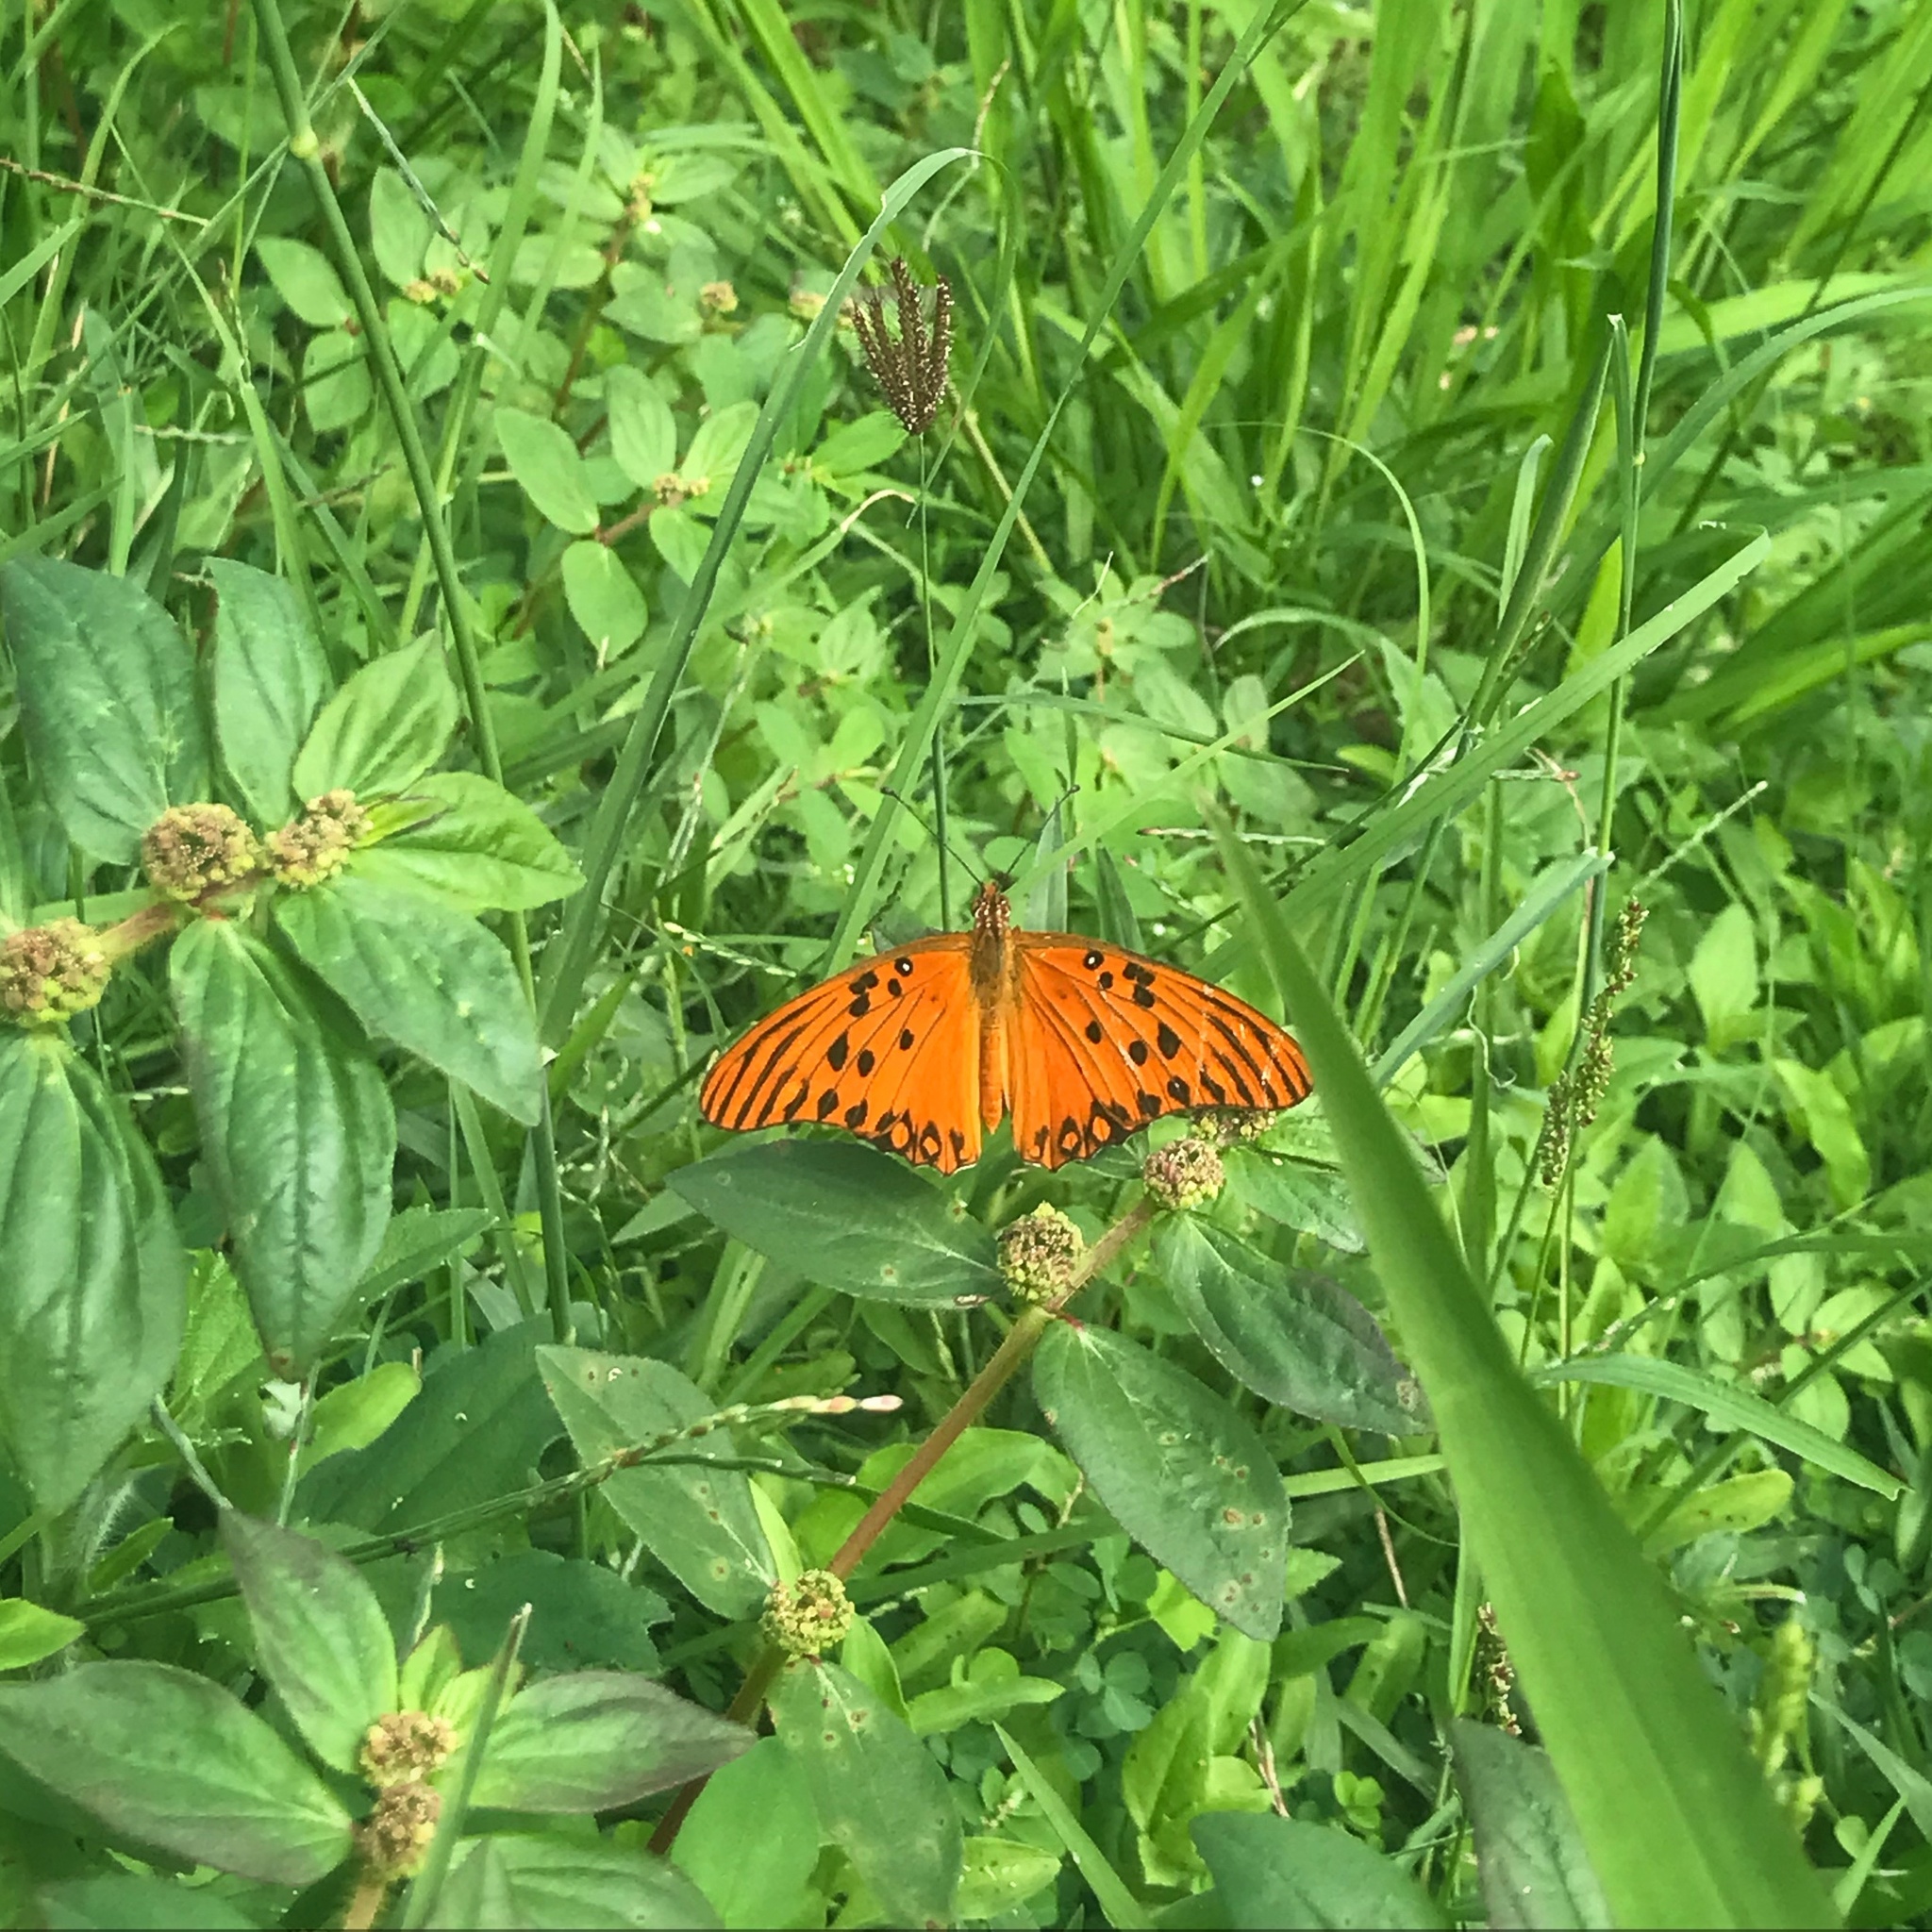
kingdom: Animalia
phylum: Arthropoda
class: Insecta
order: Lepidoptera
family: Nymphalidae
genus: Dione
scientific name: Dione vanillae
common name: Gulf fritillary
